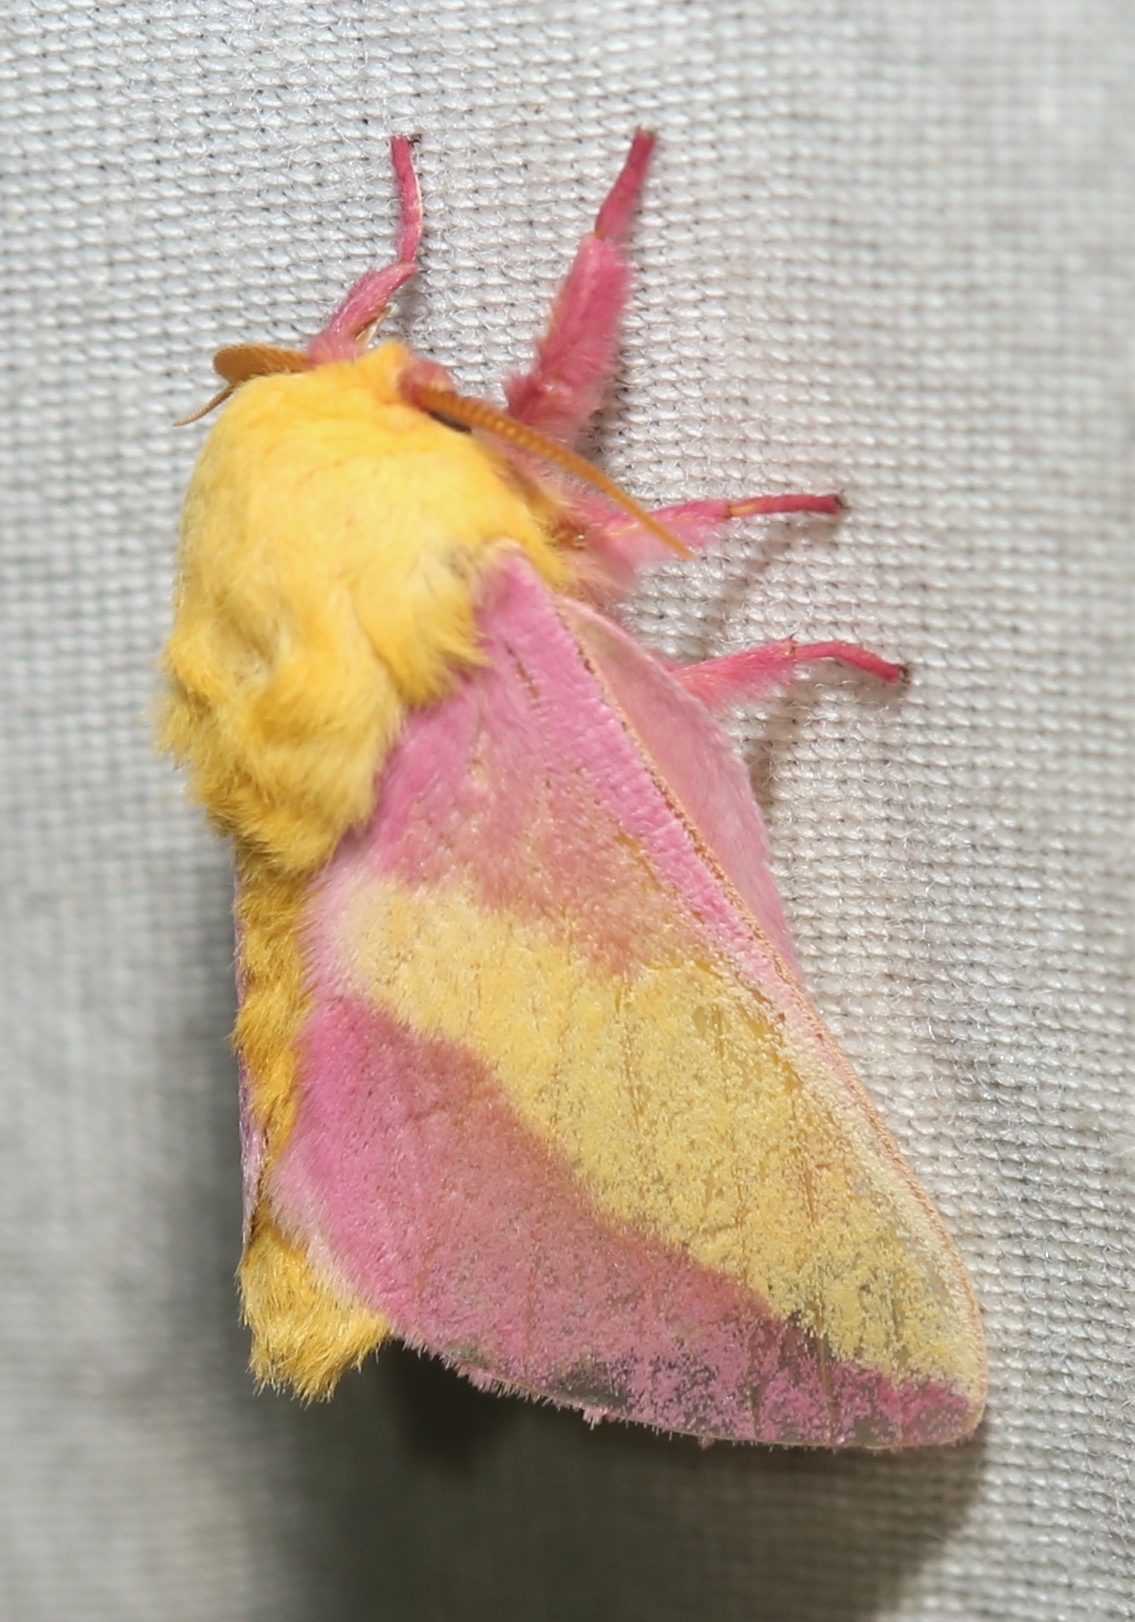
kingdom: Animalia
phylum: Arthropoda
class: Insecta
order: Lepidoptera
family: Saturniidae
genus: Dryocampa
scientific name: Dryocampa rubicunda
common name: Rosy maple moth
